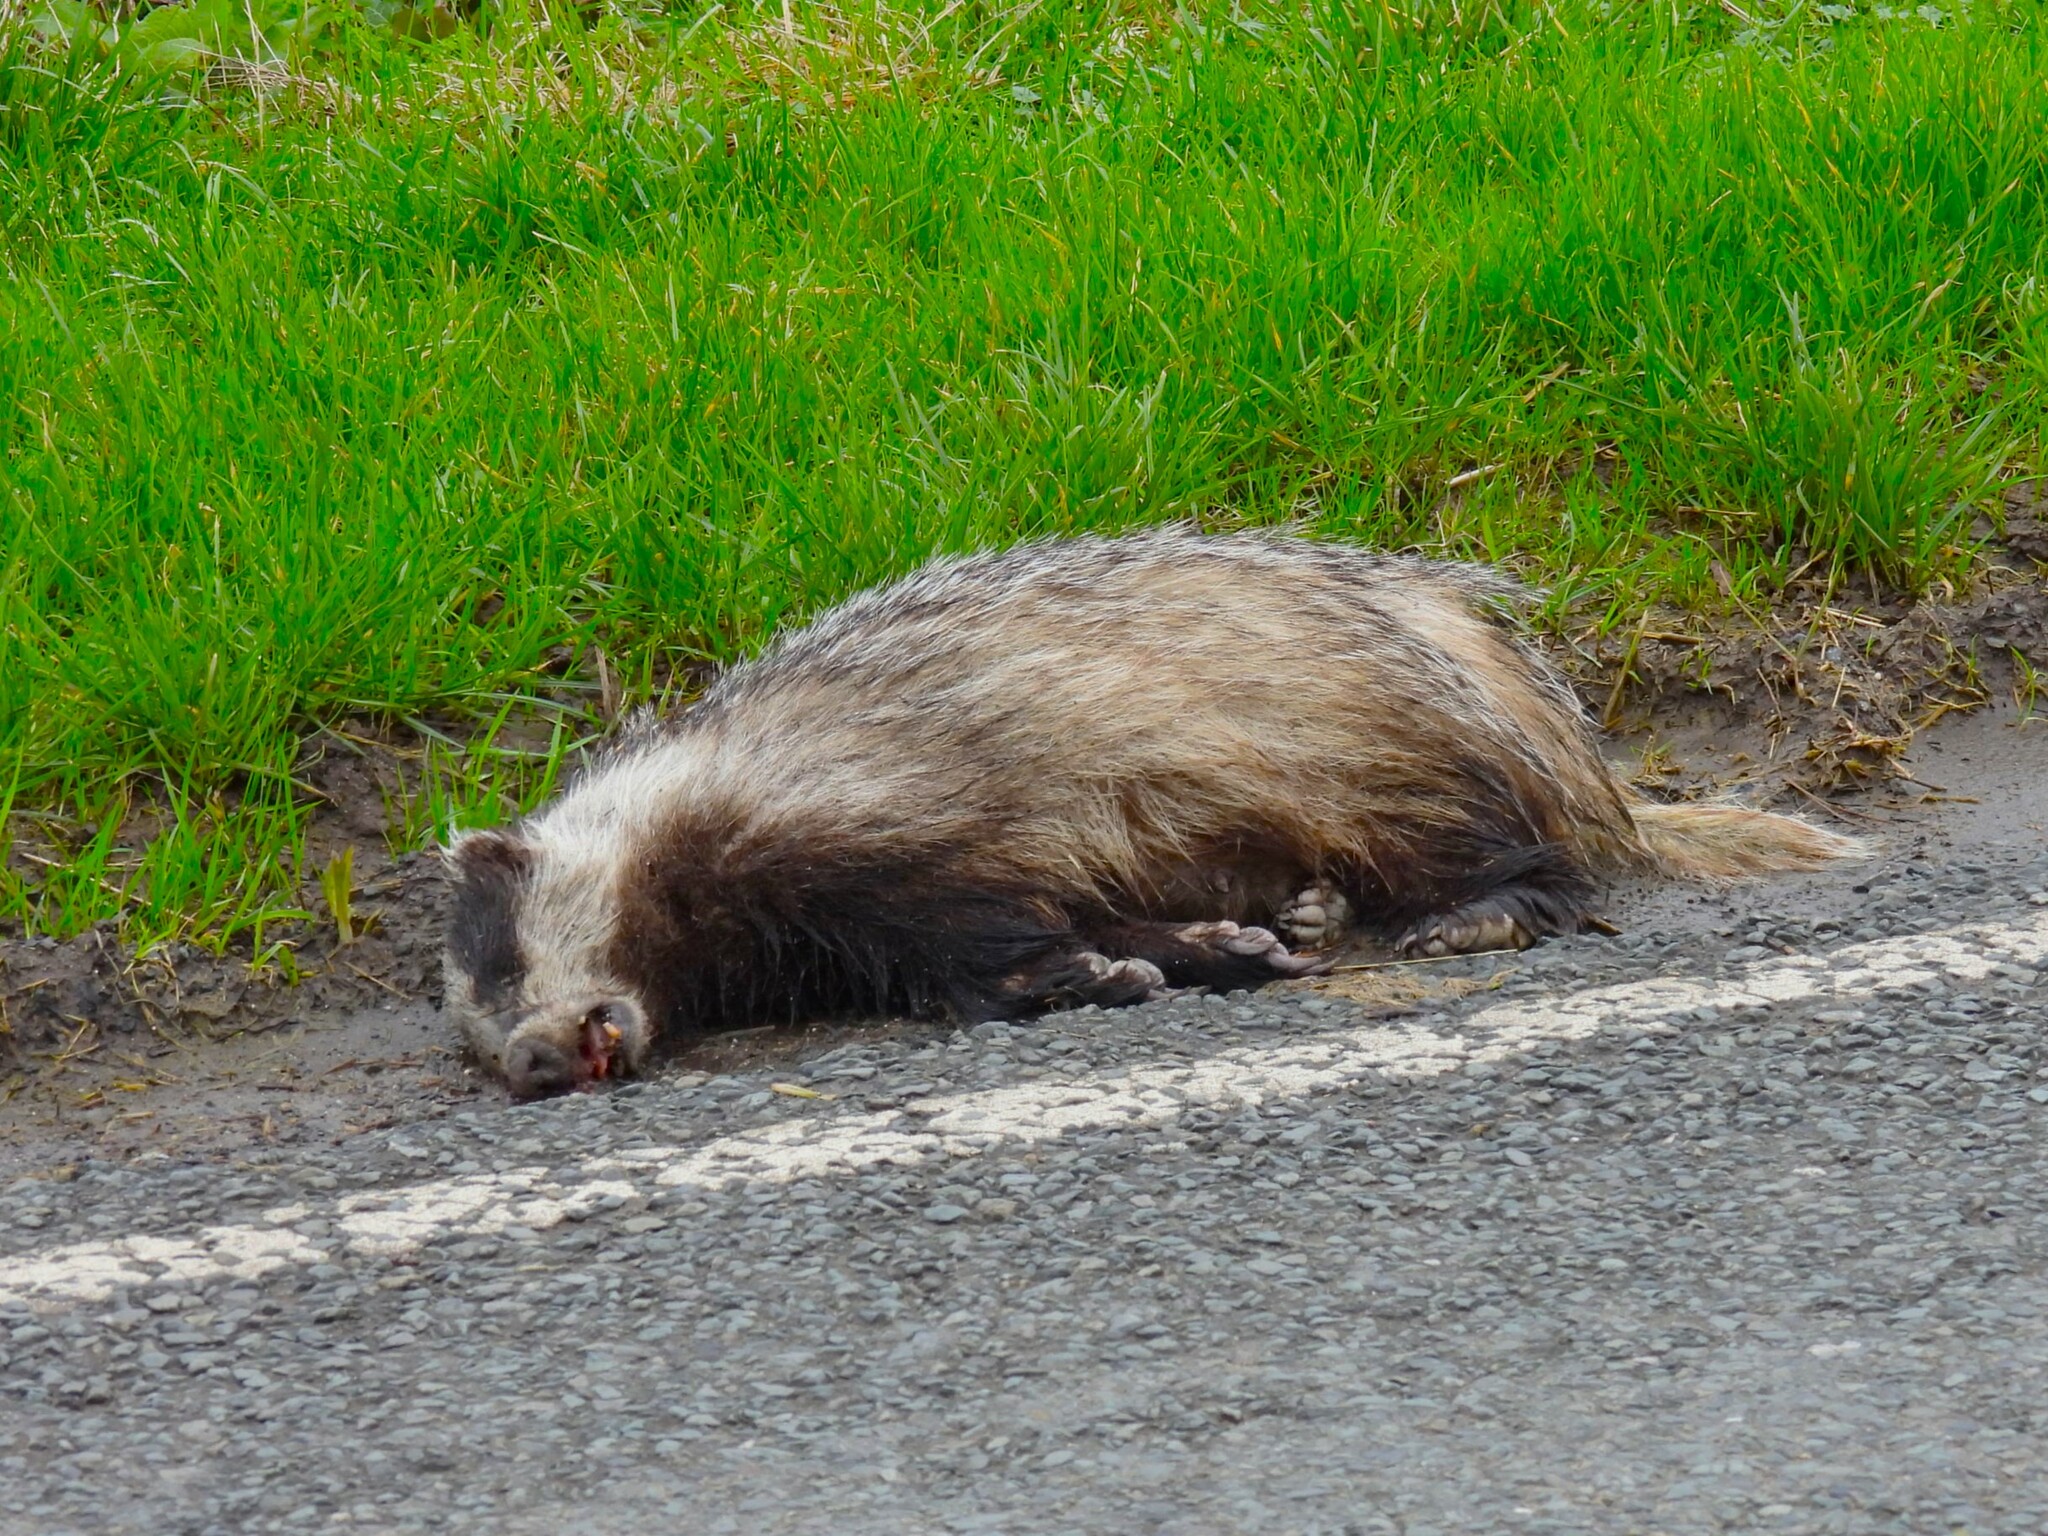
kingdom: Animalia
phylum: Chordata
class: Mammalia
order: Carnivora
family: Mustelidae
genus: Meles
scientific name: Meles meles
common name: Eurasian badger
